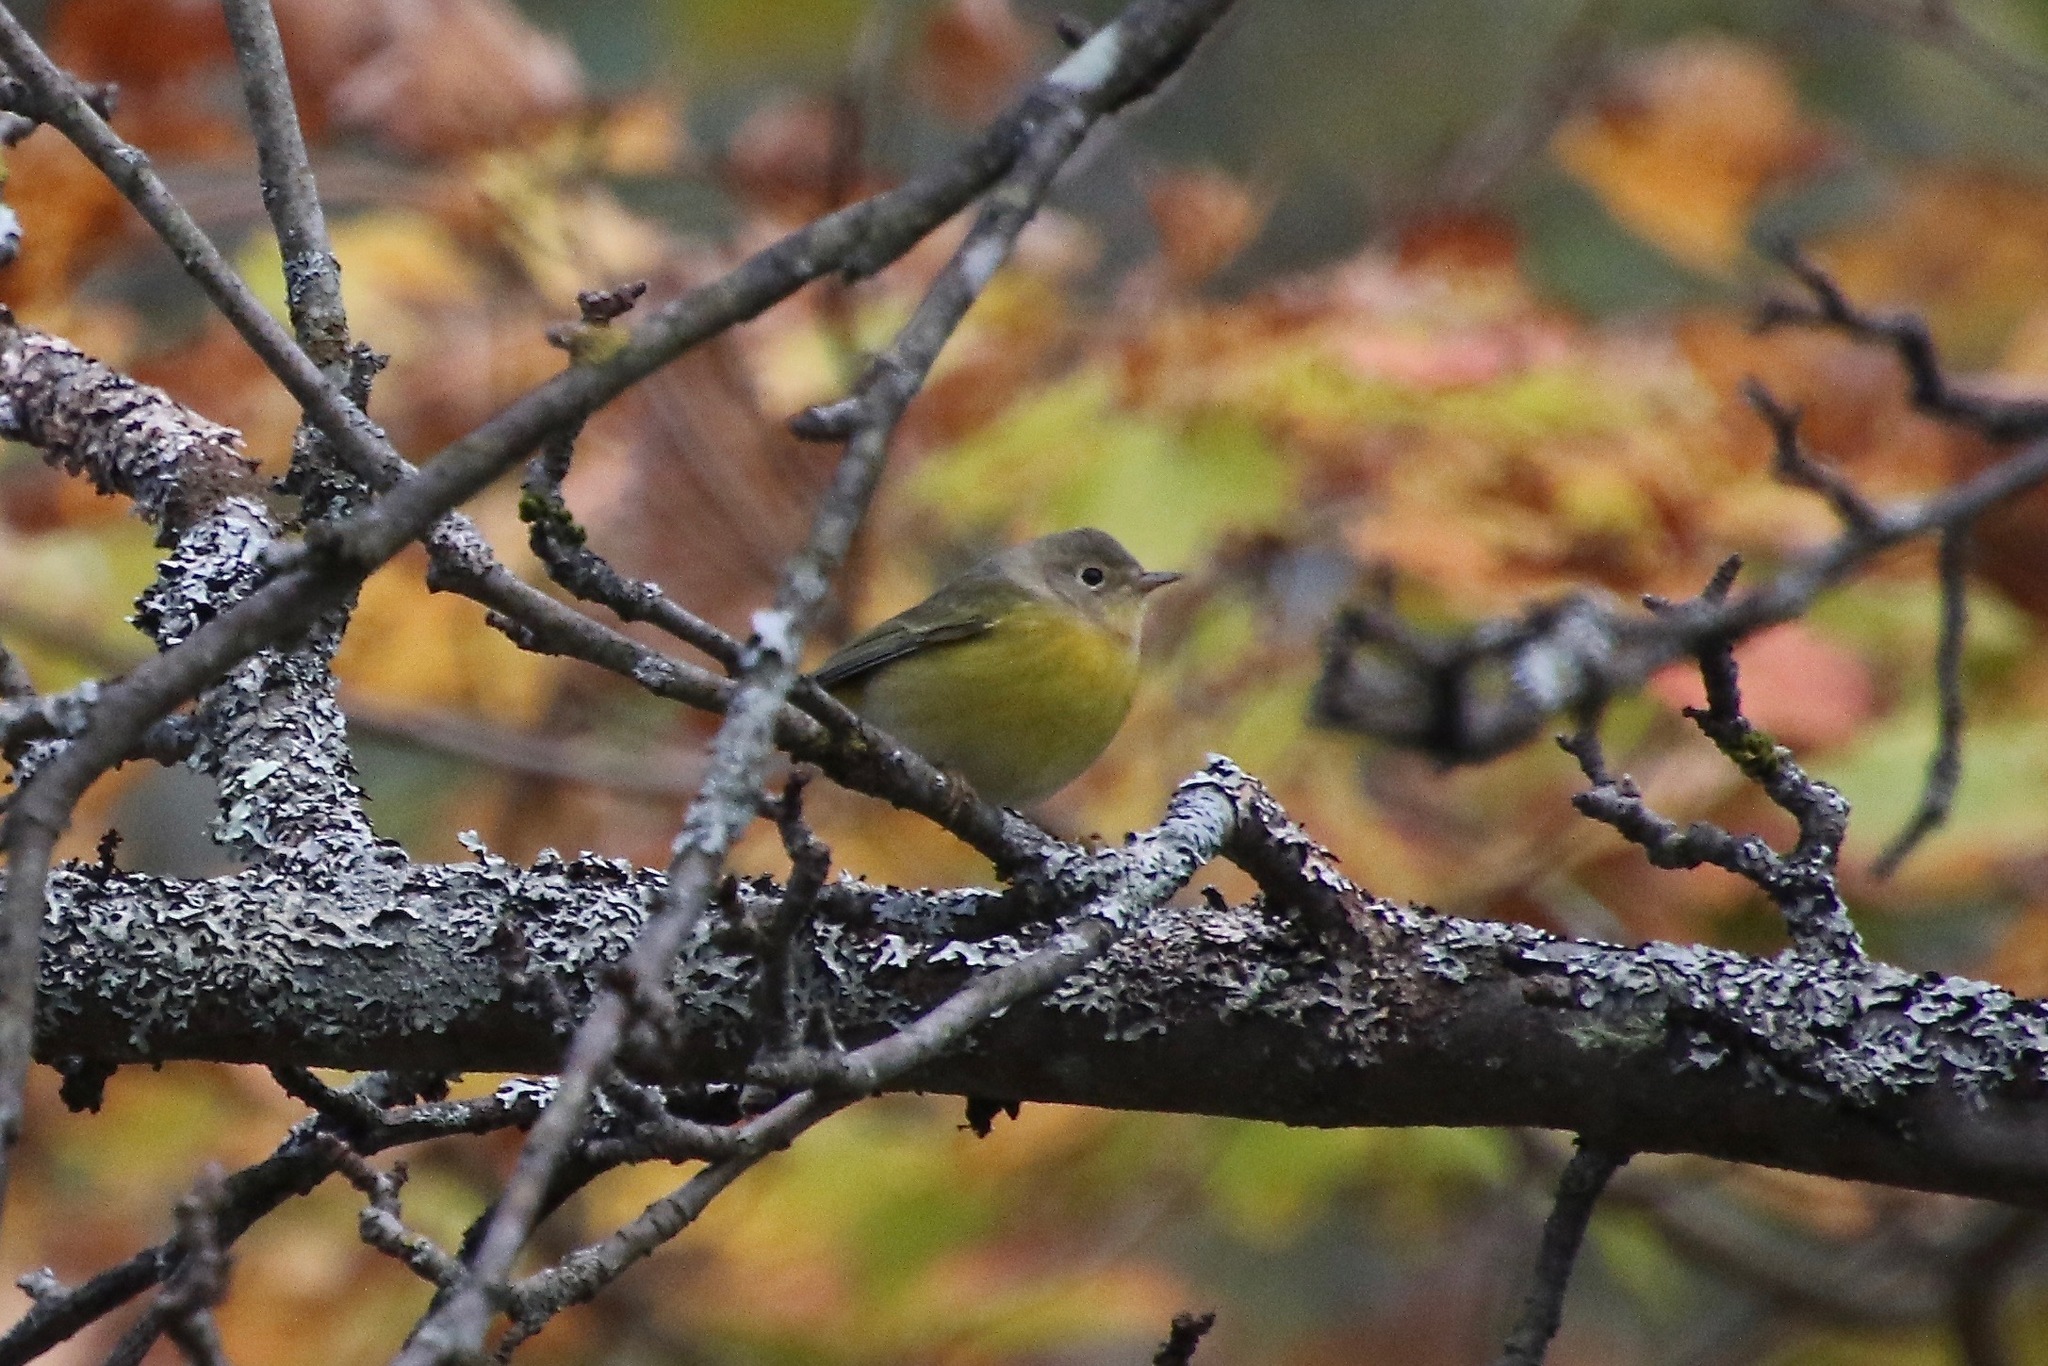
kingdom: Animalia
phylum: Chordata
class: Aves
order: Passeriformes
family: Parulidae
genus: Leiothlypis
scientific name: Leiothlypis ruficapilla
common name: Nashville warbler
